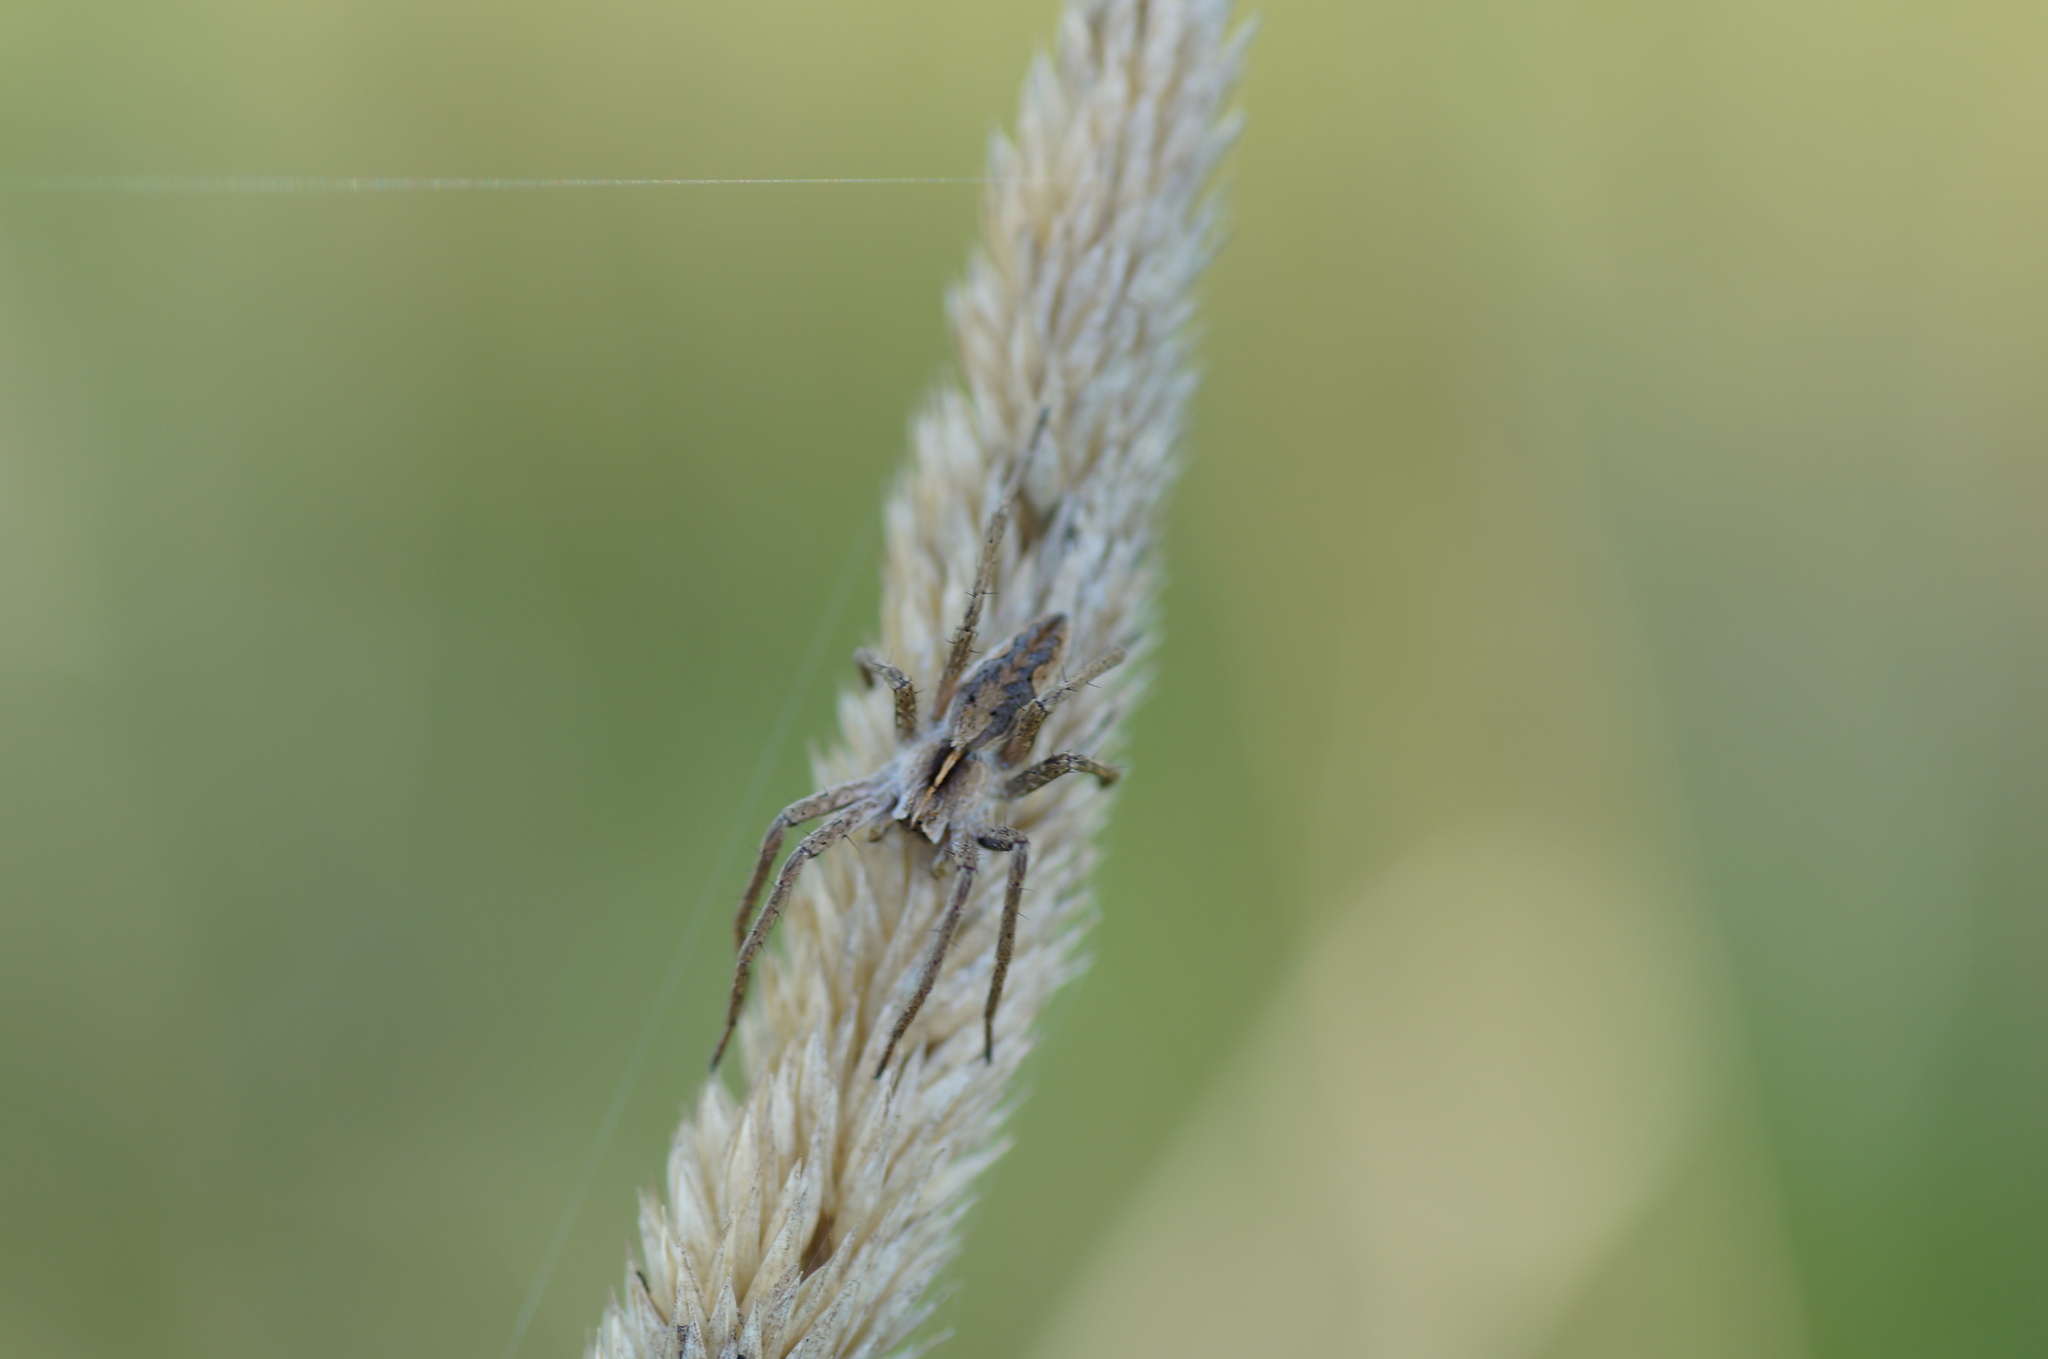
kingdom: Animalia
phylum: Arthropoda
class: Arachnida
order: Araneae
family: Pisauridae
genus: Pisaura
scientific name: Pisaura mirabilis
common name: Tent spider
